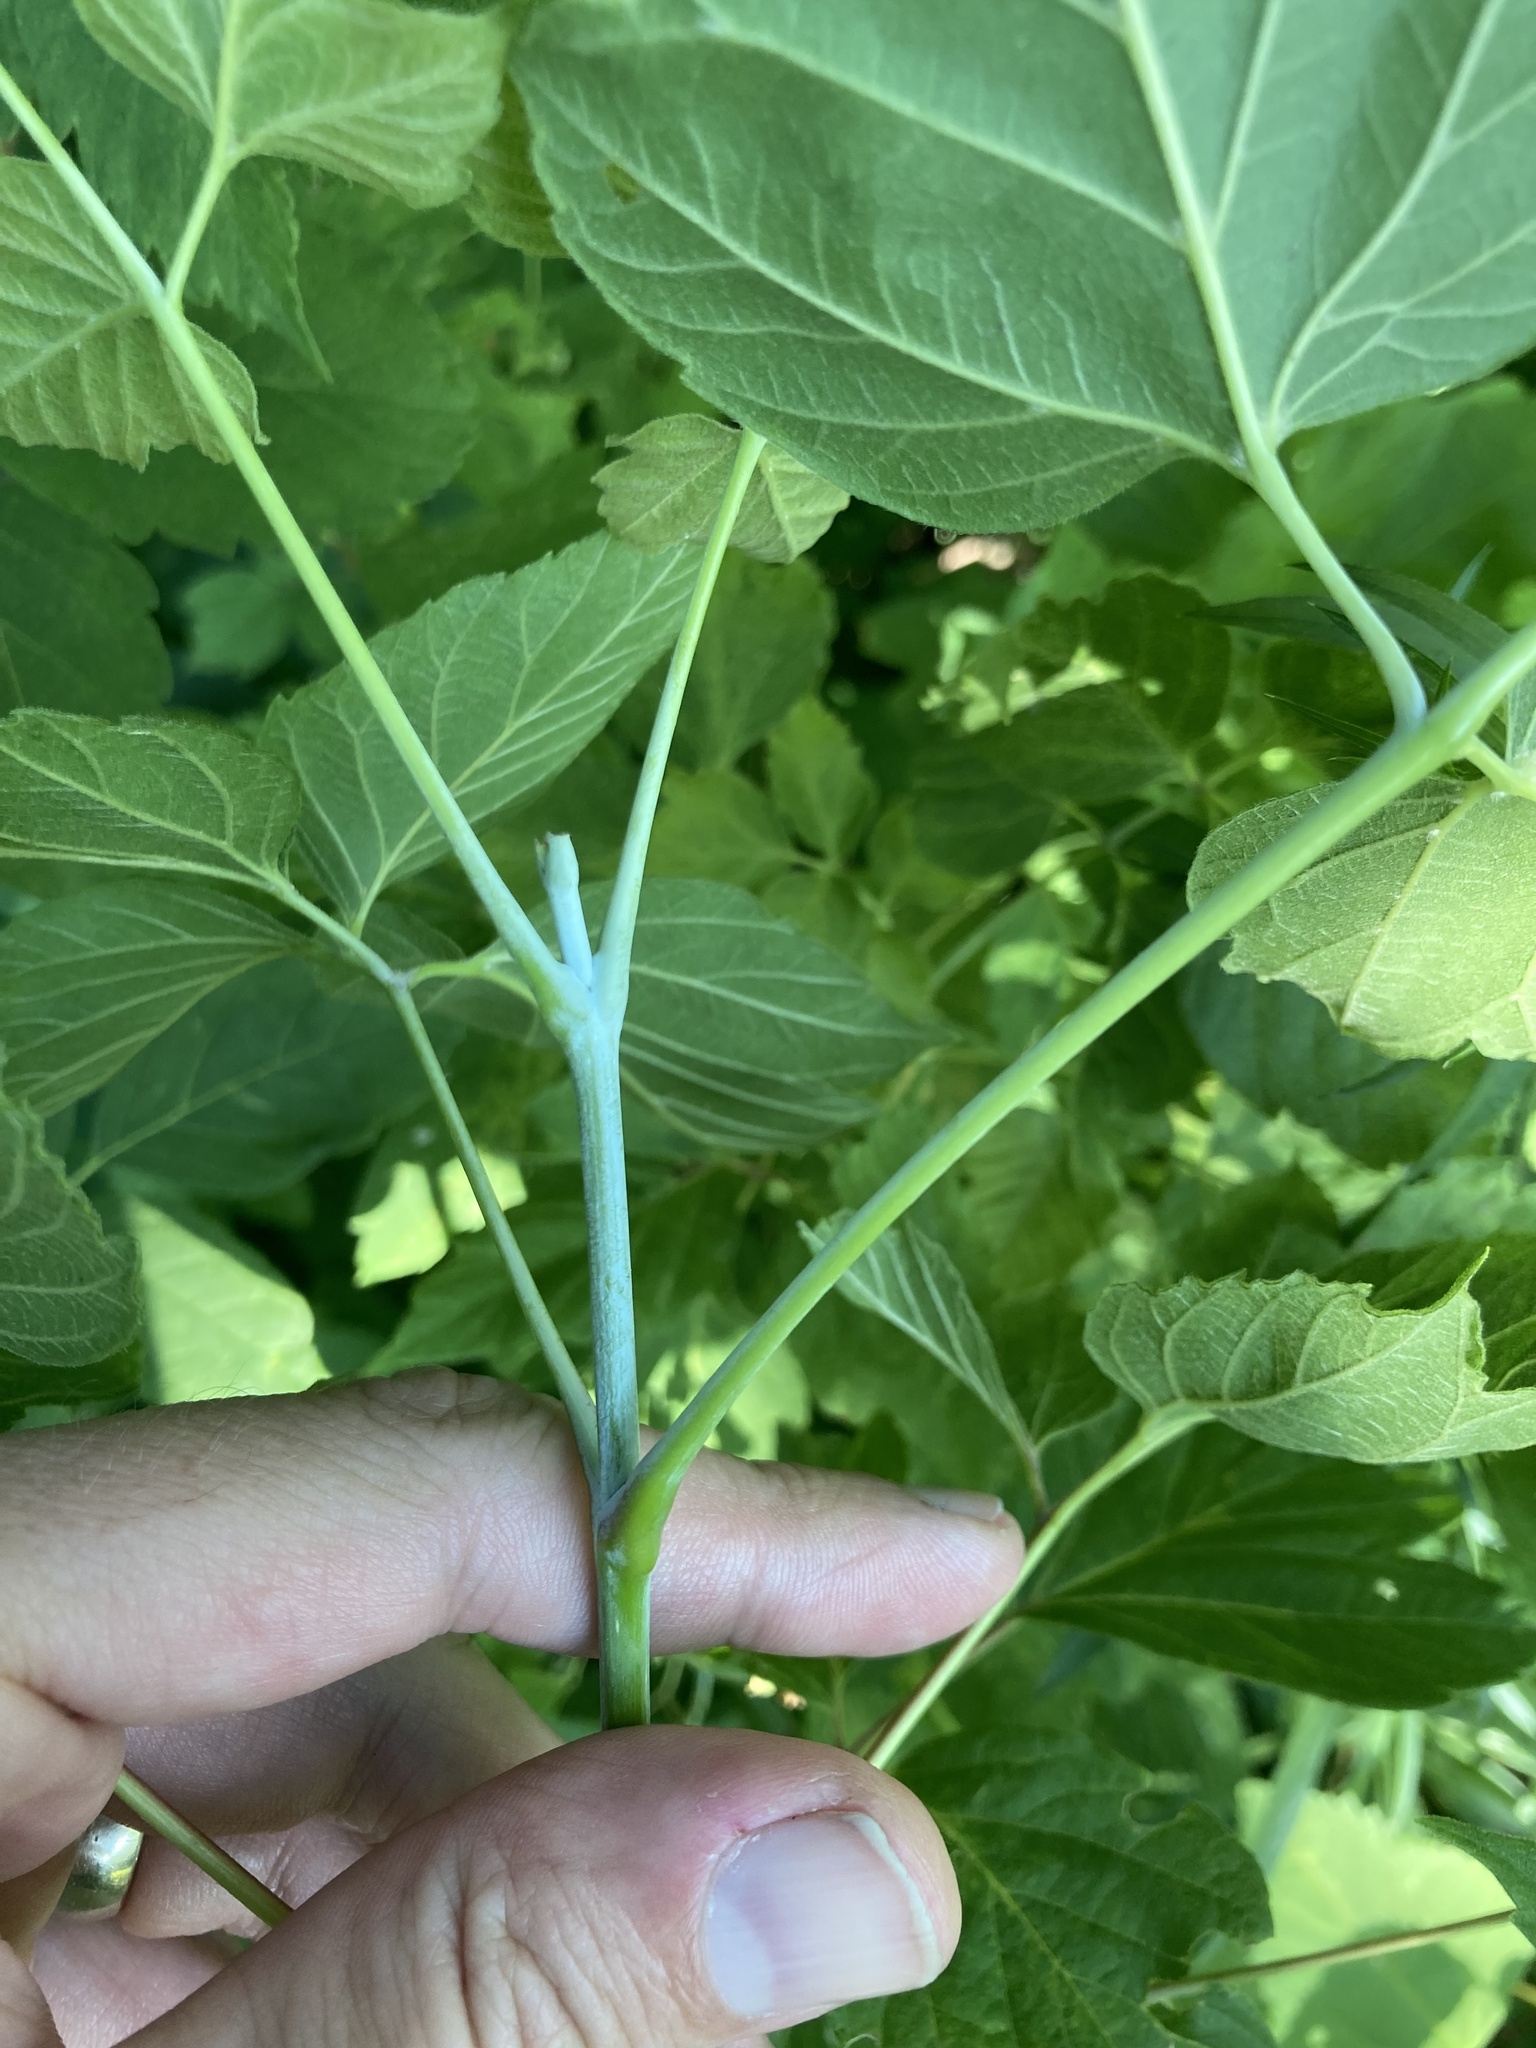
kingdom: Plantae
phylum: Tracheophyta
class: Magnoliopsida
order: Sapindales
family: Sapindaceae
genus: Acer
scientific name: Acer negundo
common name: Ashleaf maple
